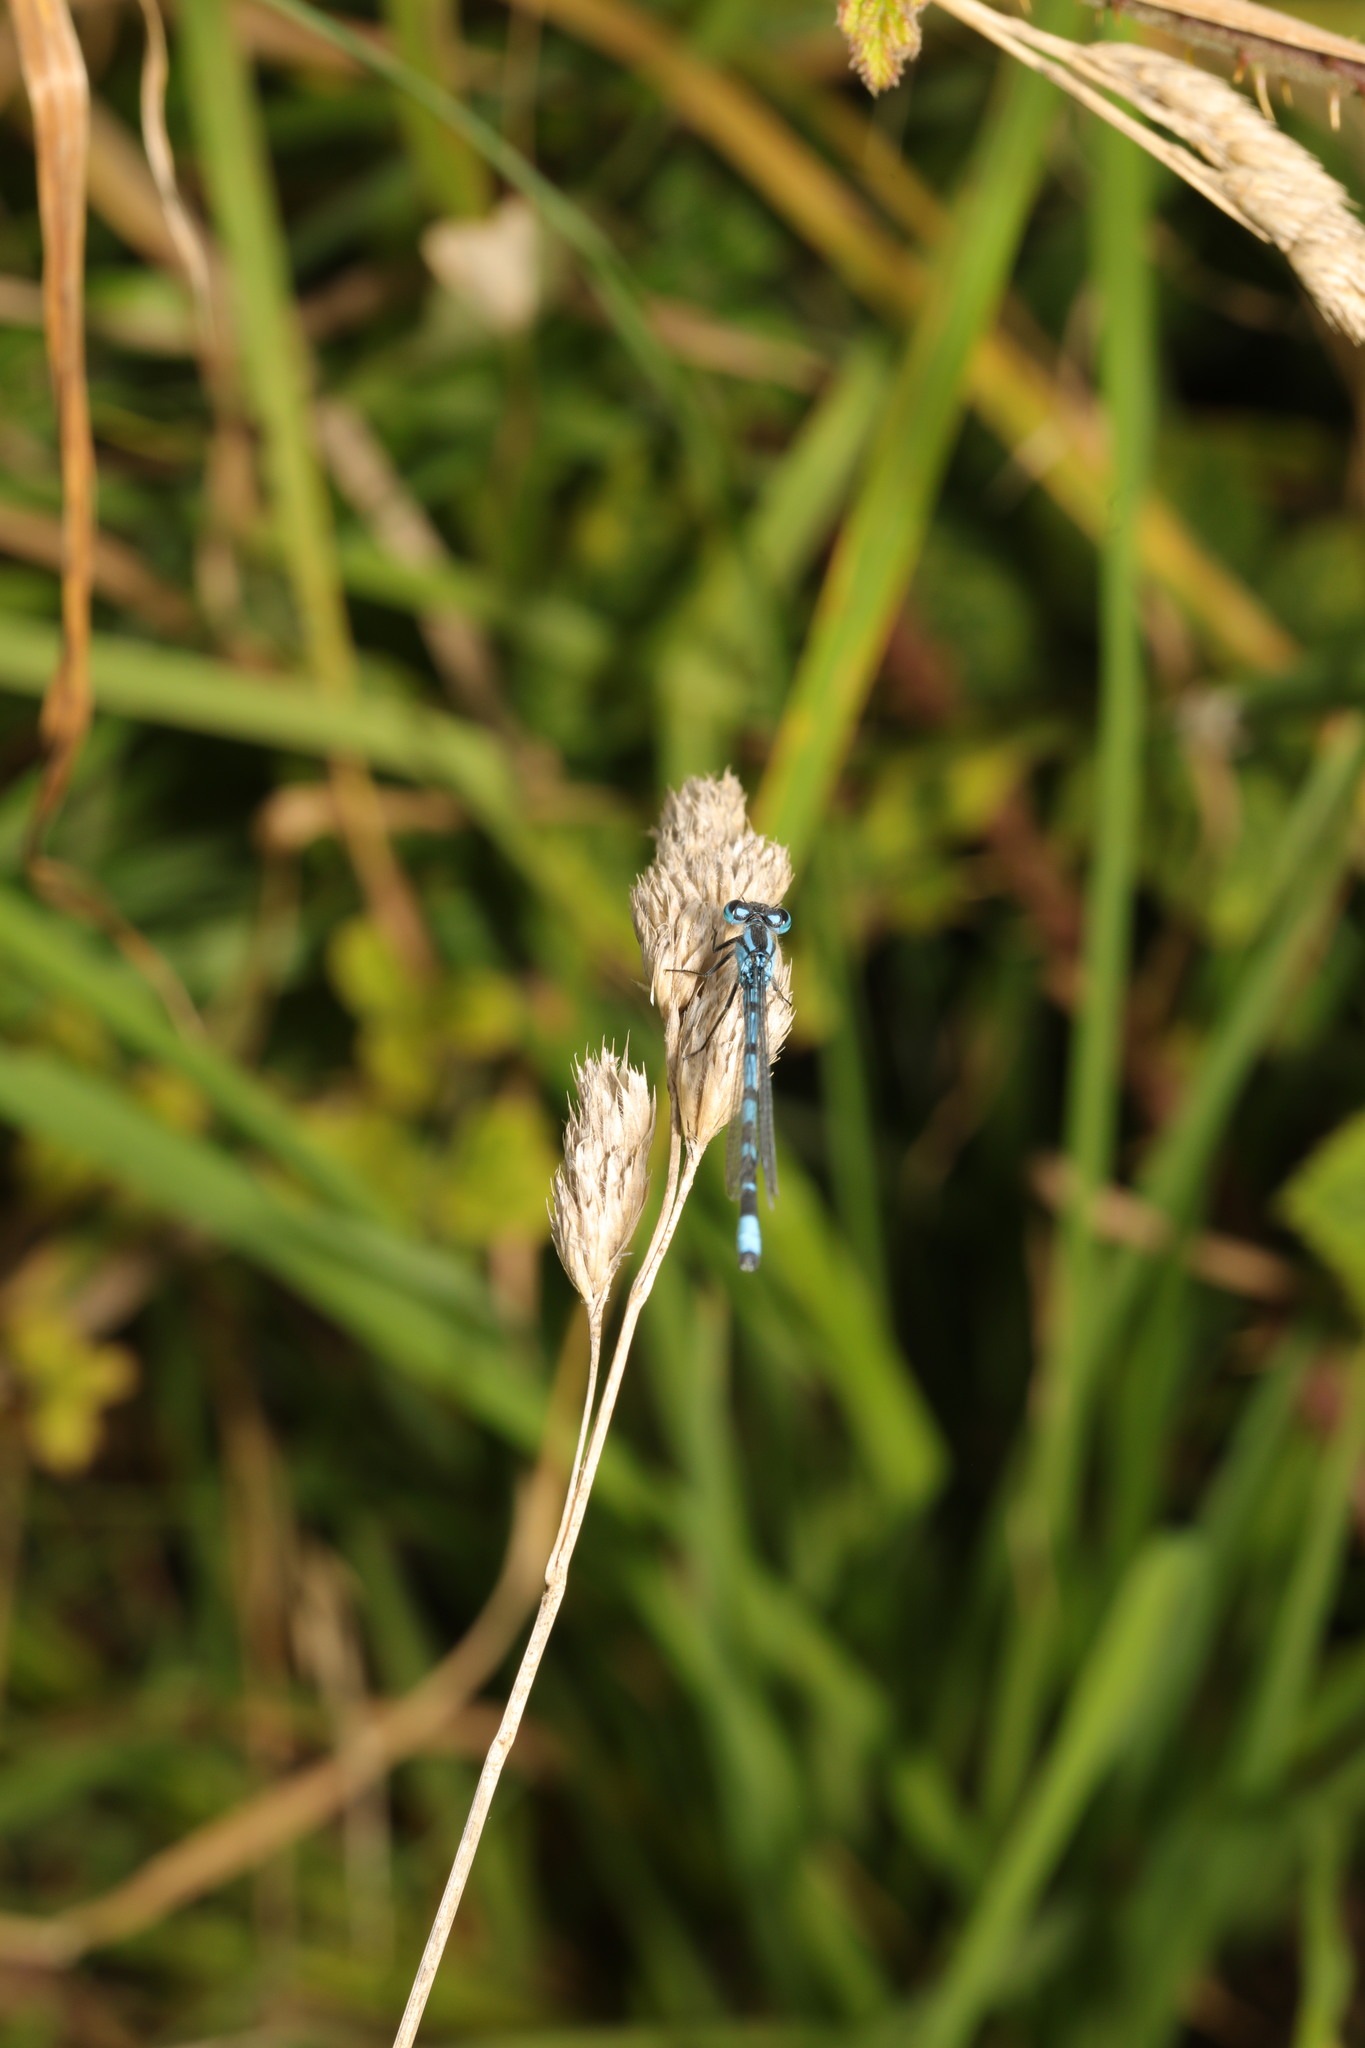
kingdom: Animalia
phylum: Arthropoda
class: Insecta
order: Odonata
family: Coenagrionidae
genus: Enallagma
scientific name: Enallagma cyathigerum
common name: Common blue damselfly
